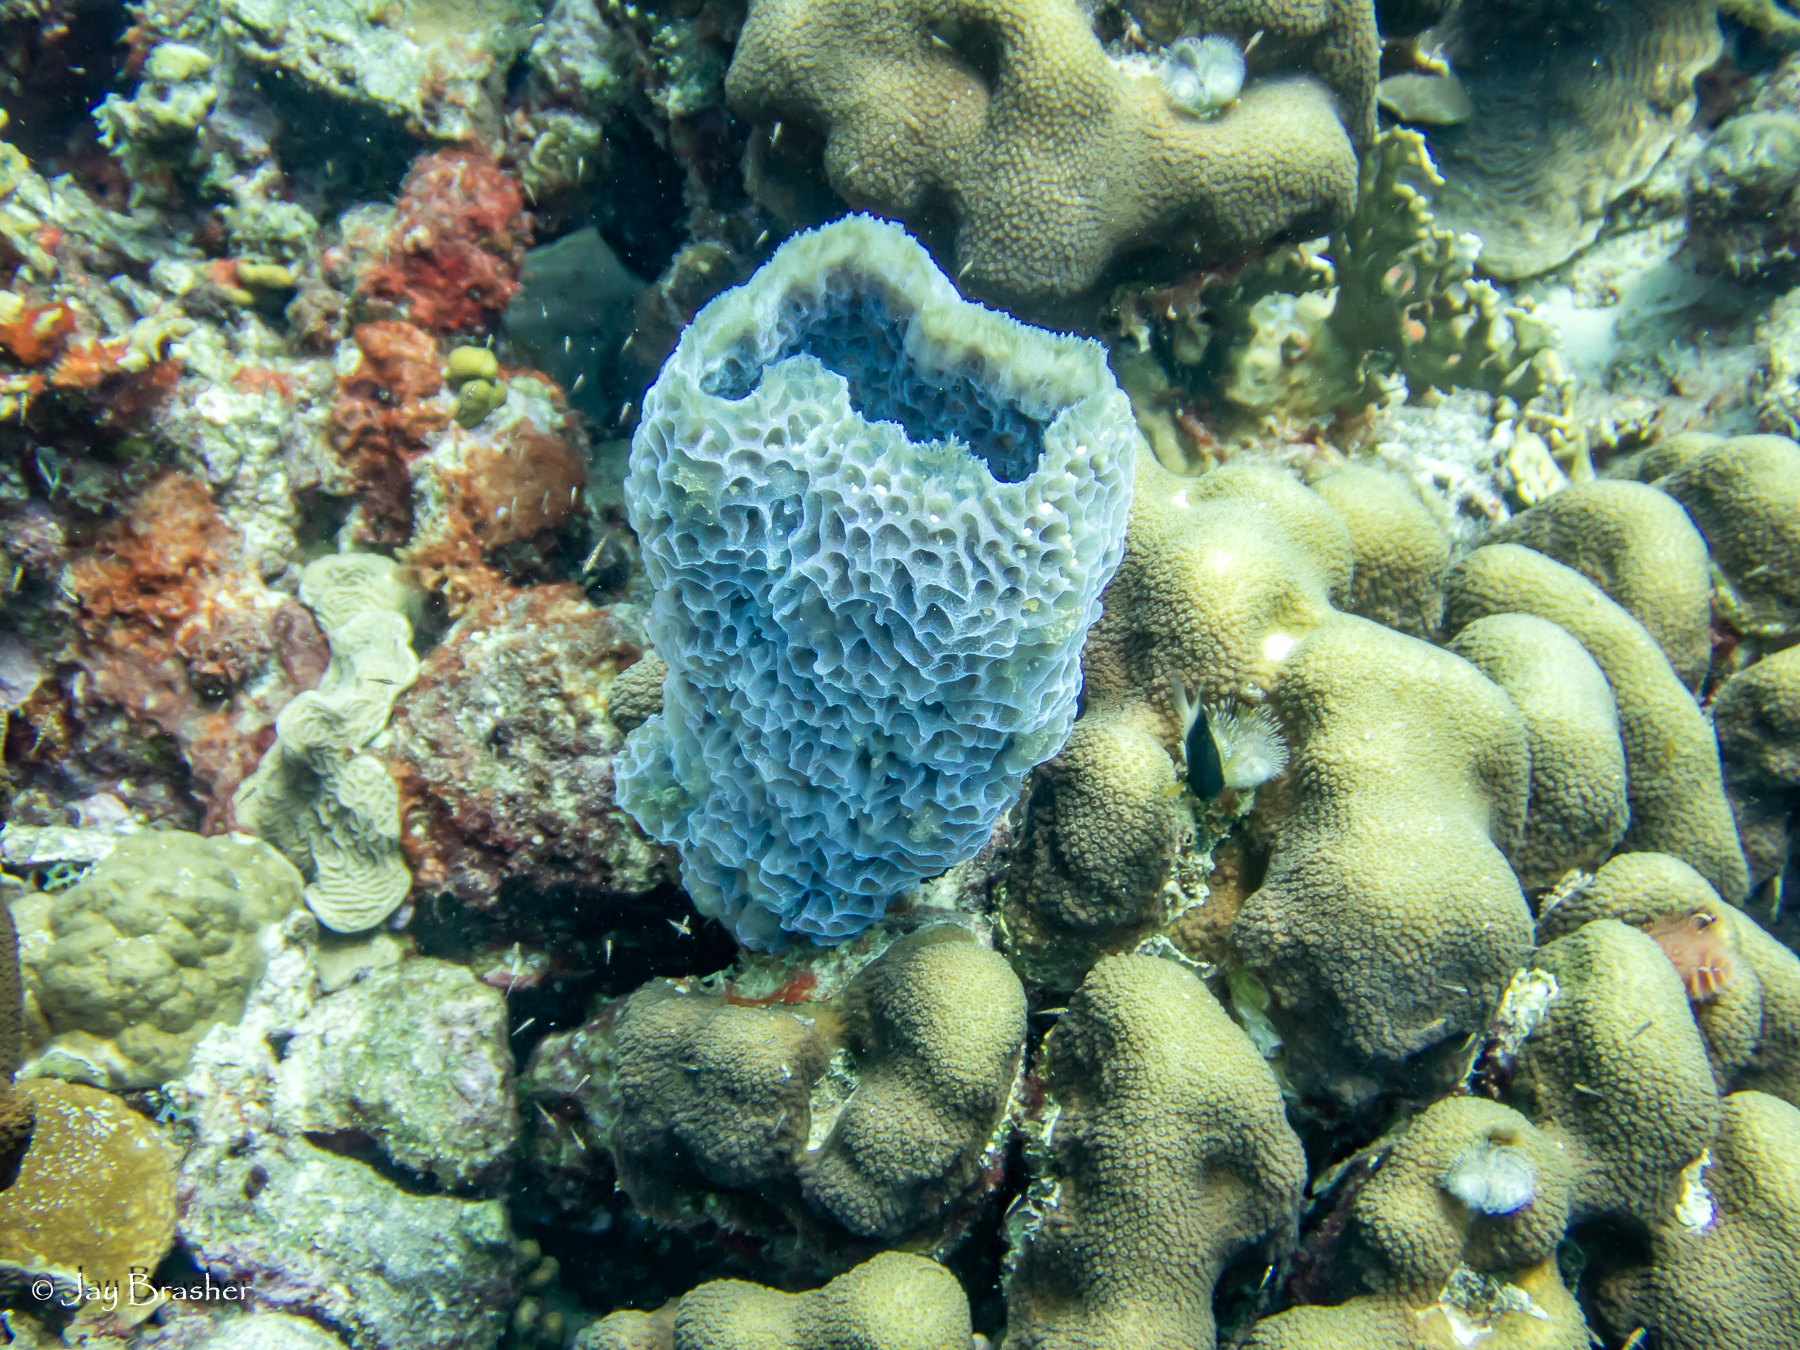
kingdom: Animalia
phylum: Cnidaria
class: Anthozoa
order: Scleractinia
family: Merulinidae
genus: Orbicella
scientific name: Orbicella annularis
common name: Boulder star coral
